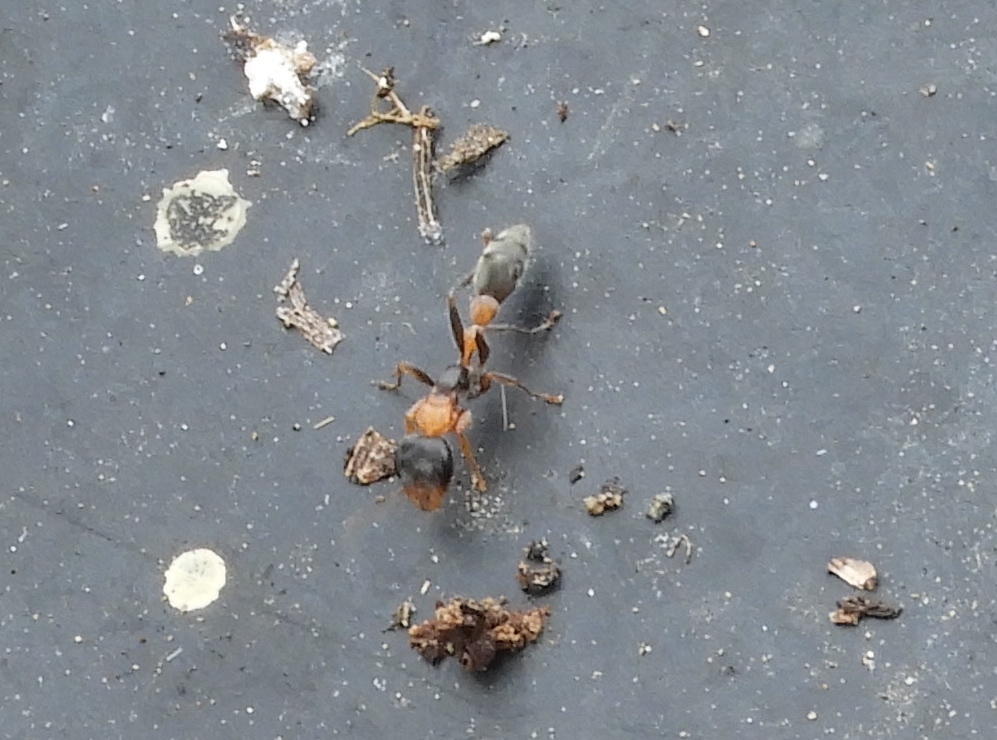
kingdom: Animalia
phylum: Arthropoda
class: Insecta
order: Hymenoptera
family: Formicidae
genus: Pseudomyrmex
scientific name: Pseudomyrmex gracilis
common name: Graceful twig ant
